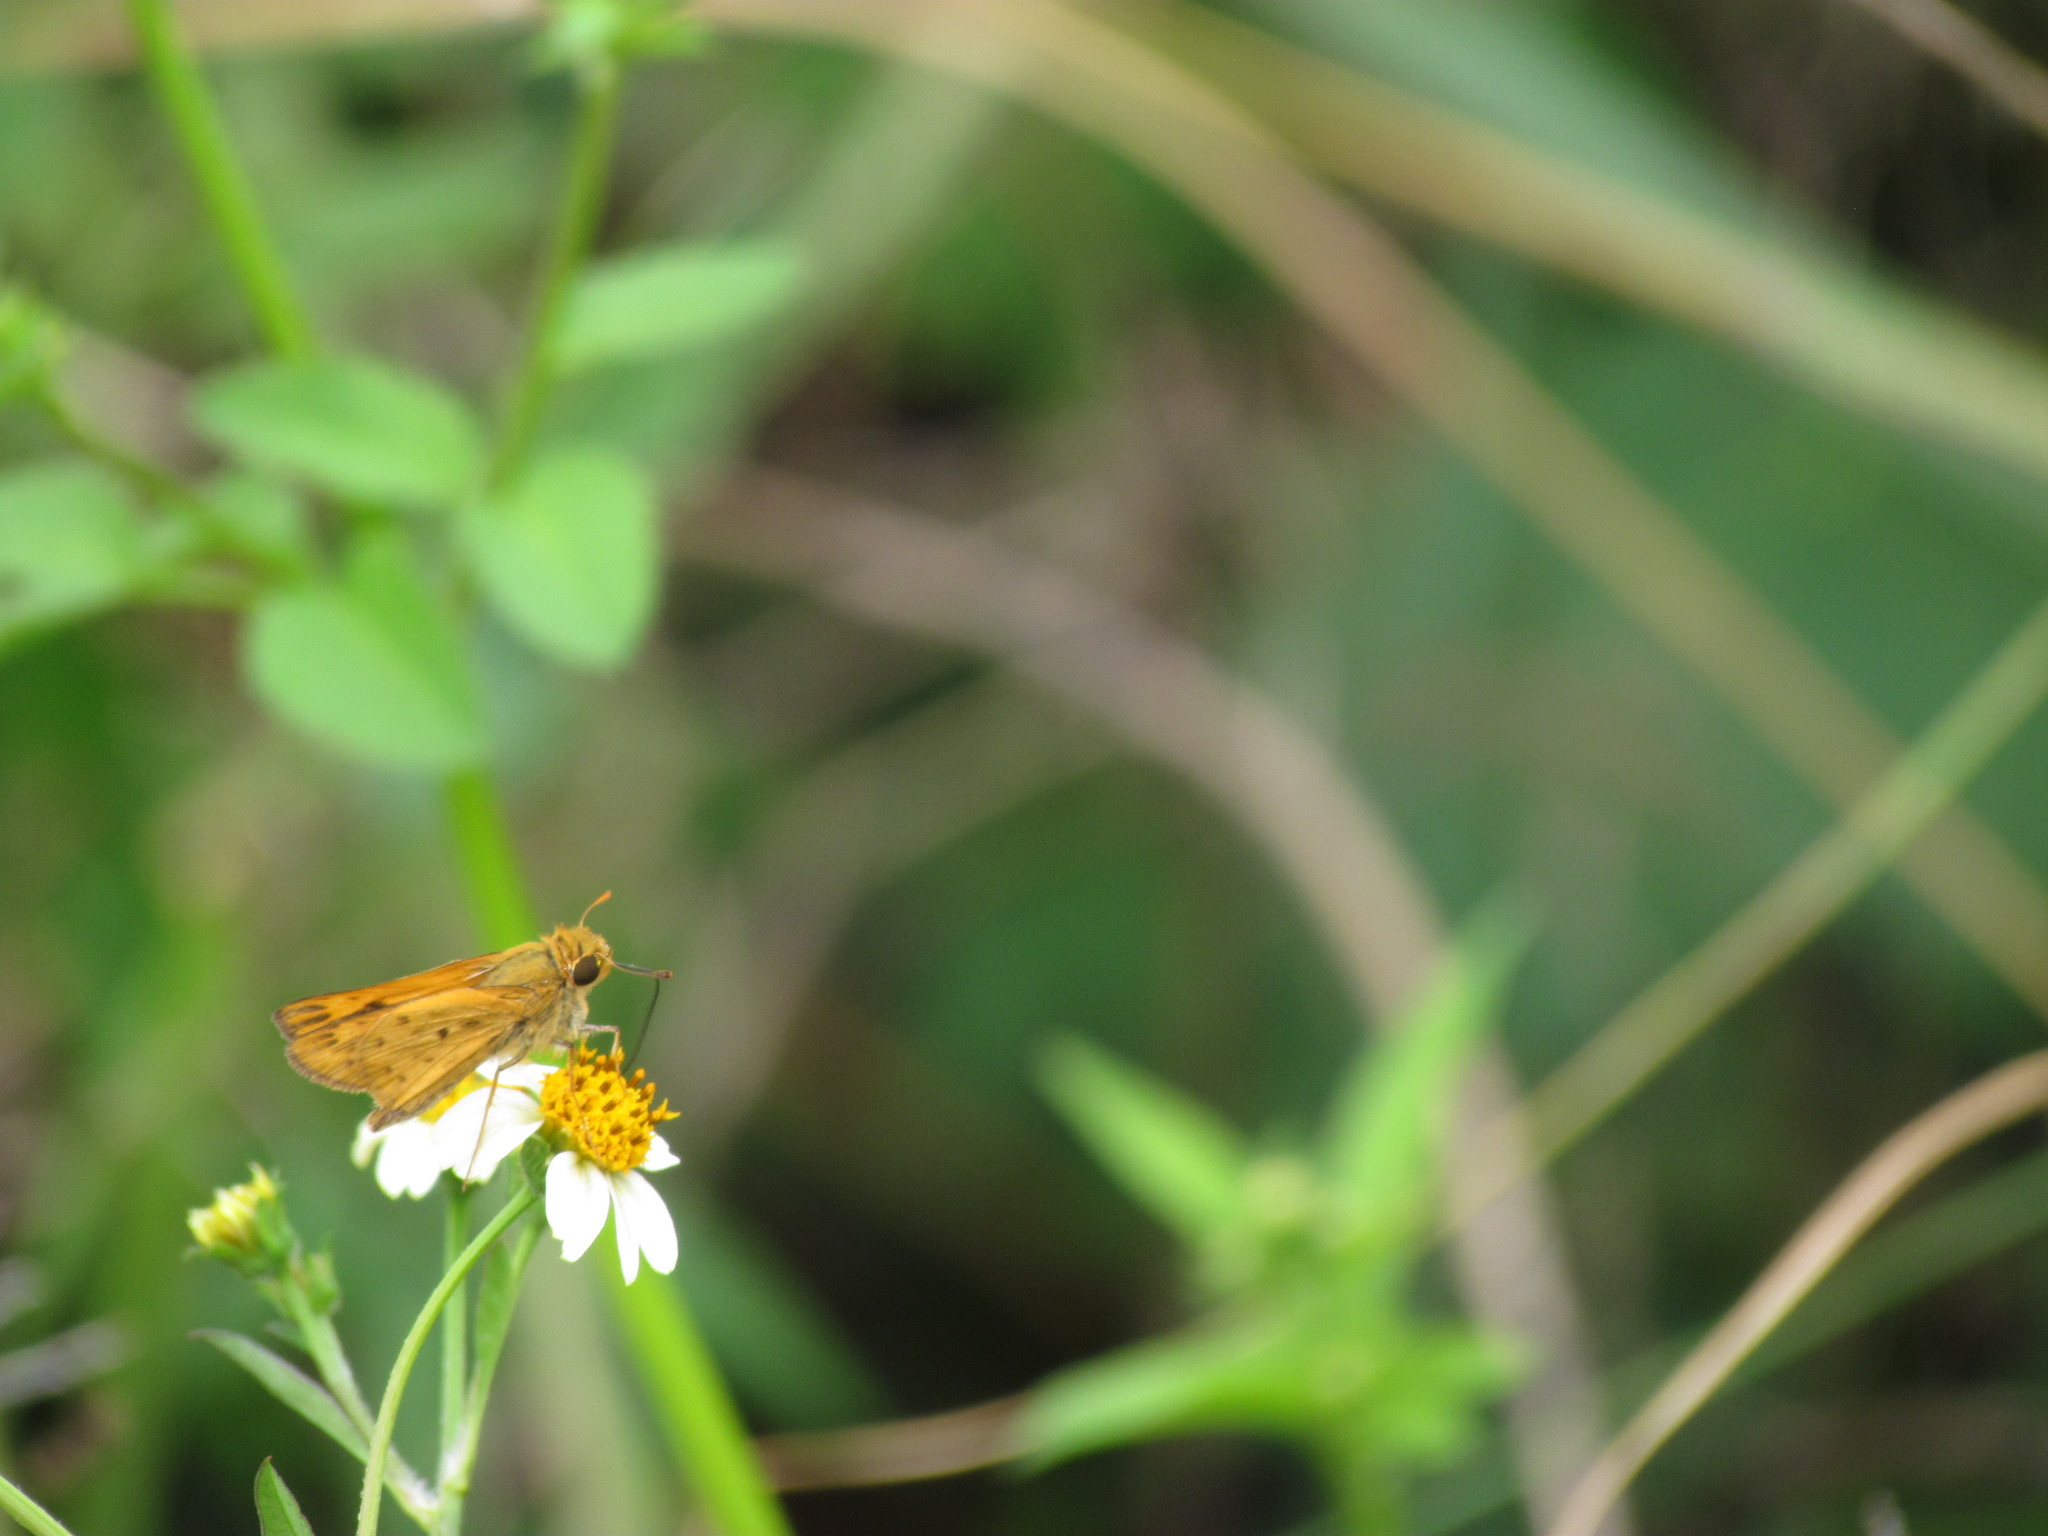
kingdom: Animalia
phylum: Arthropoda
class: Insecta
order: Lepidoptera
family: Hesperiidae
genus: Hylephila
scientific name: Hylephila phyleus
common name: Fiery skipper
